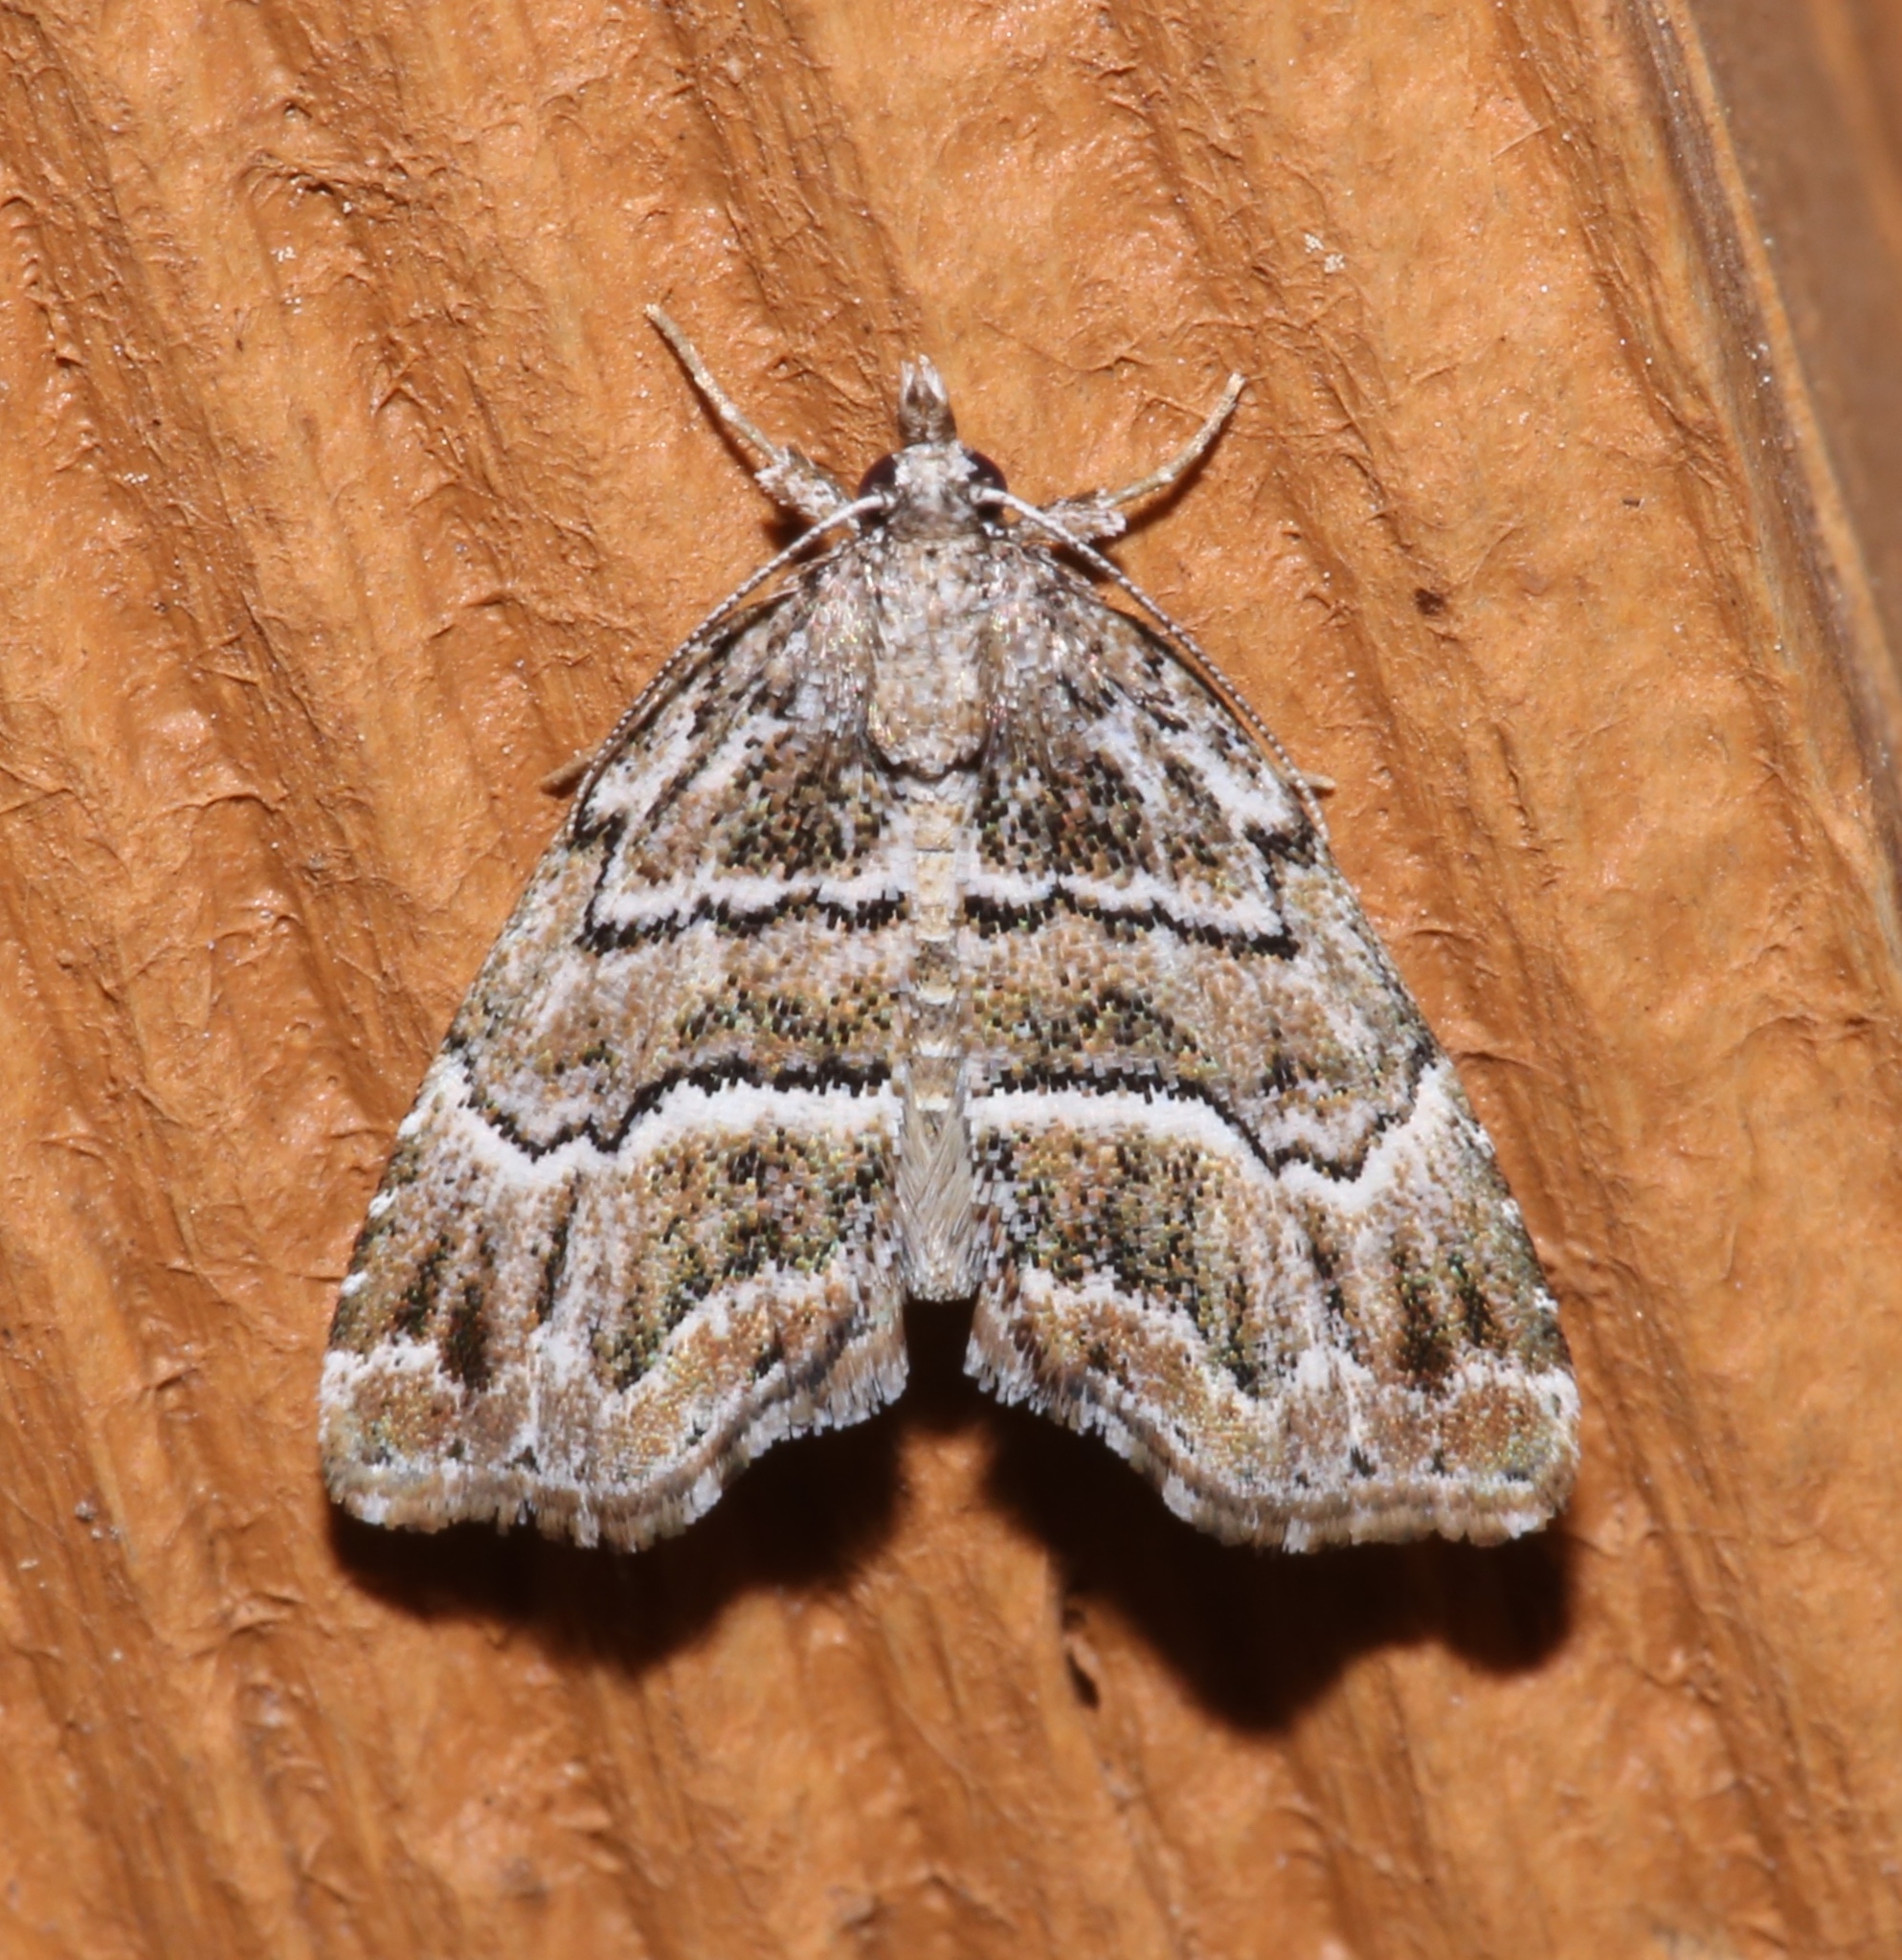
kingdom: Animalia
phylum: Arthropoda
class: Insecta
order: Lepidoptera
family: Erebidae
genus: Cutina
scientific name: Cutina arcuata
